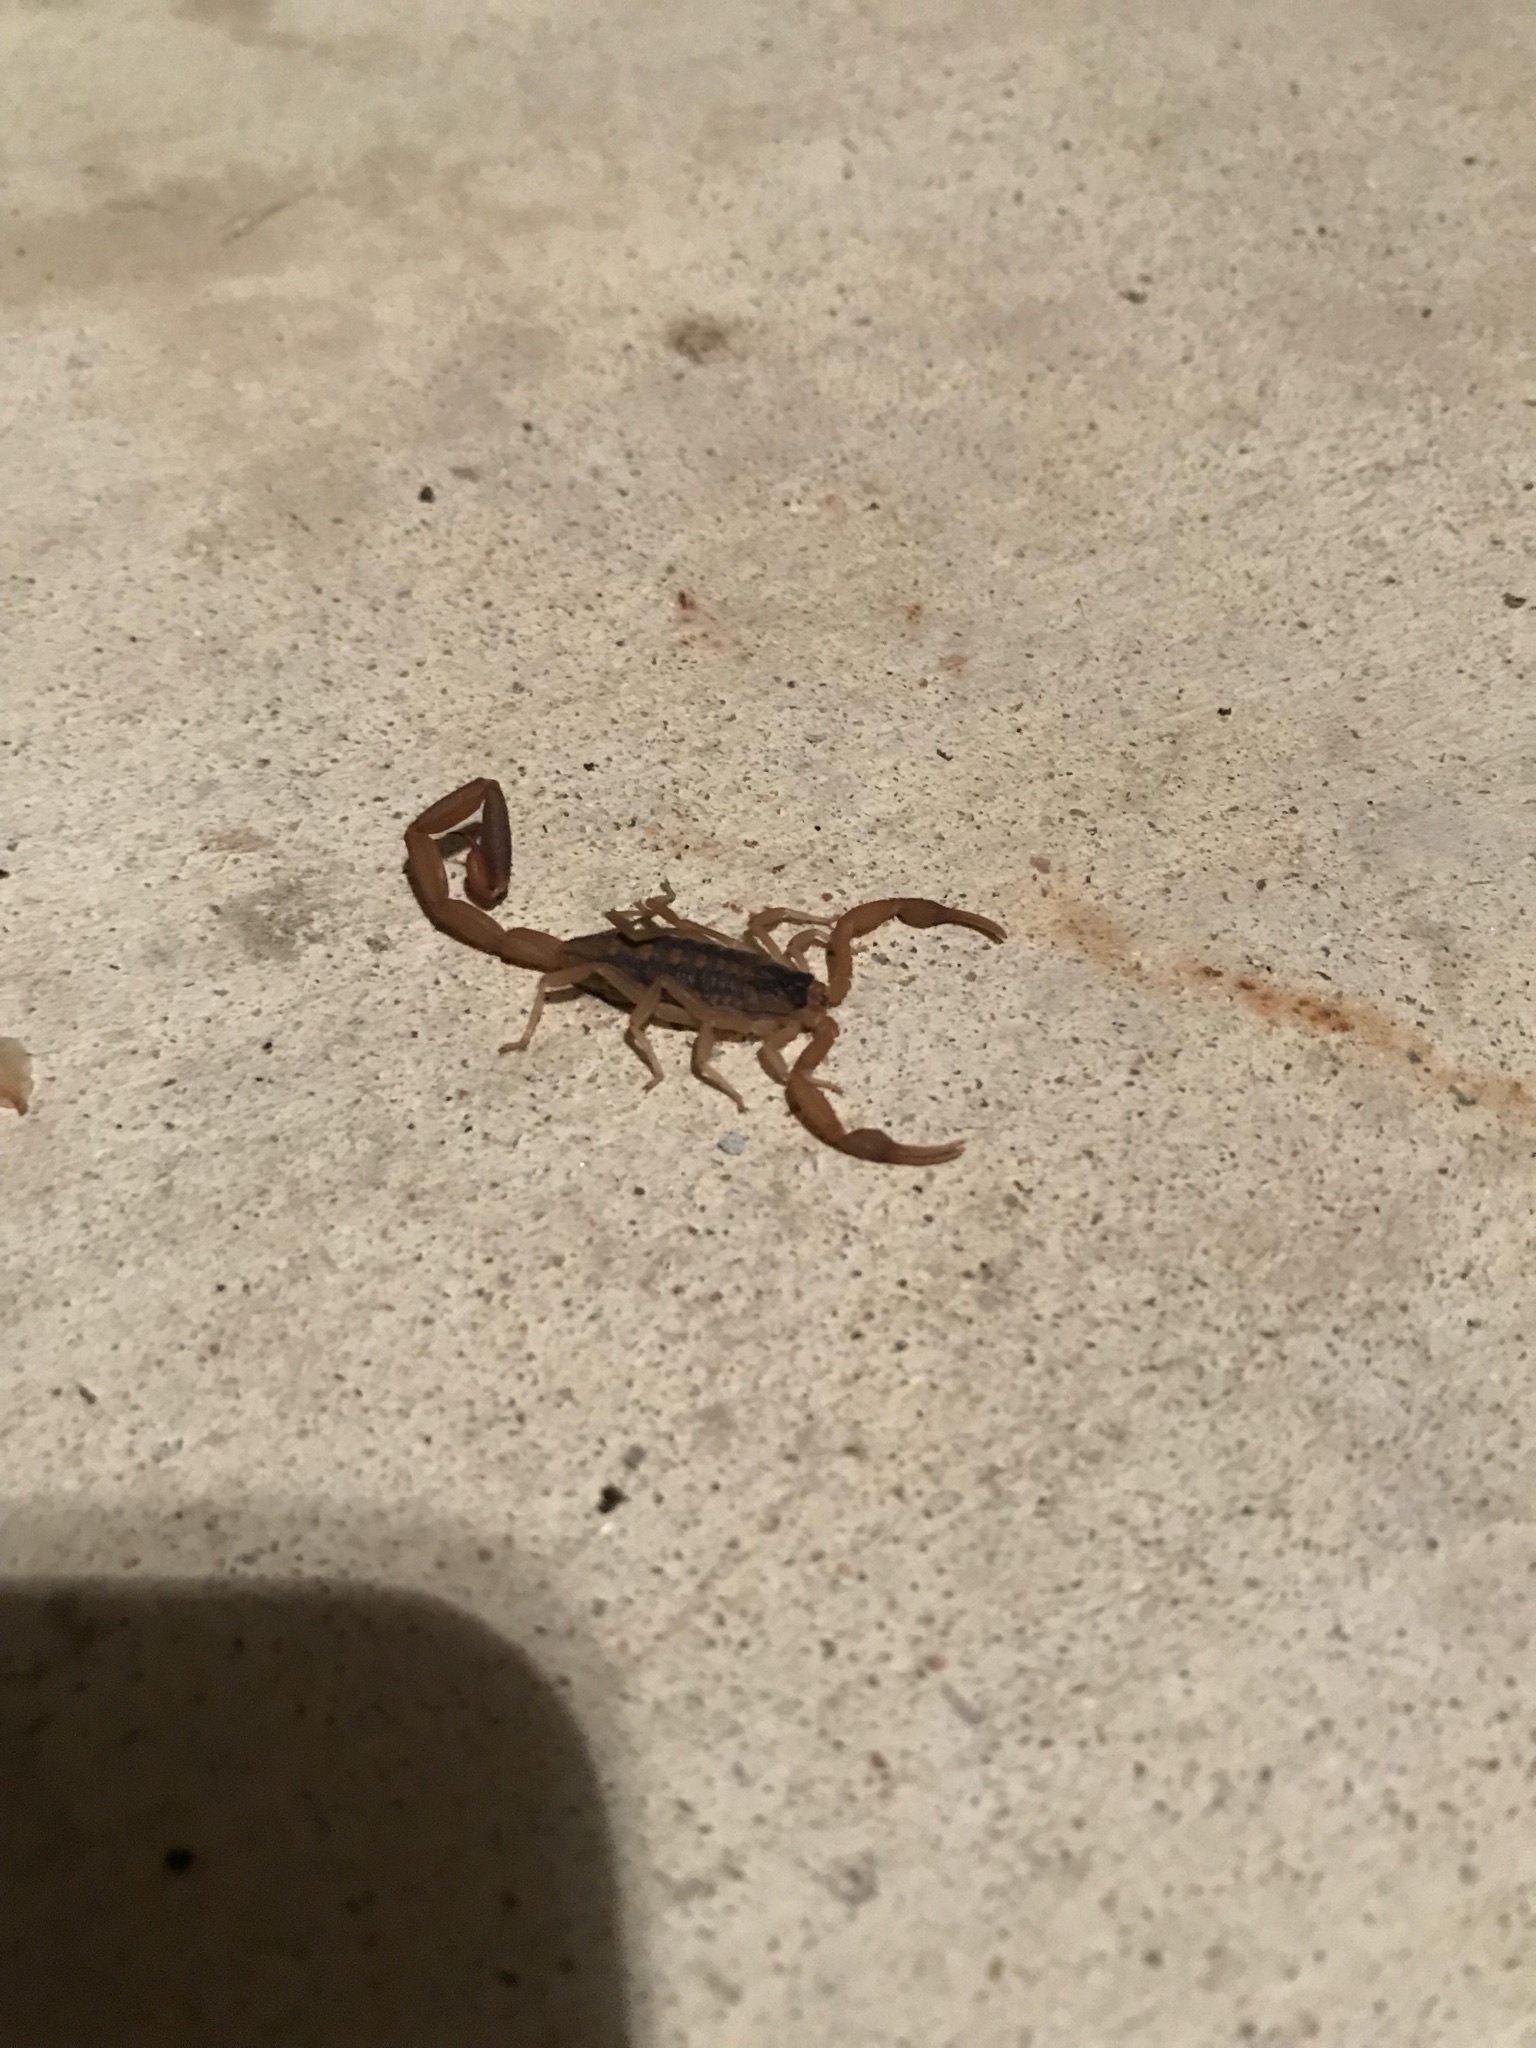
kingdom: Animalia
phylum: Arthropoda
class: Arachnida
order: Scorpiones
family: Buthidae
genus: Centruroides
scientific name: Centruroides vittatus
